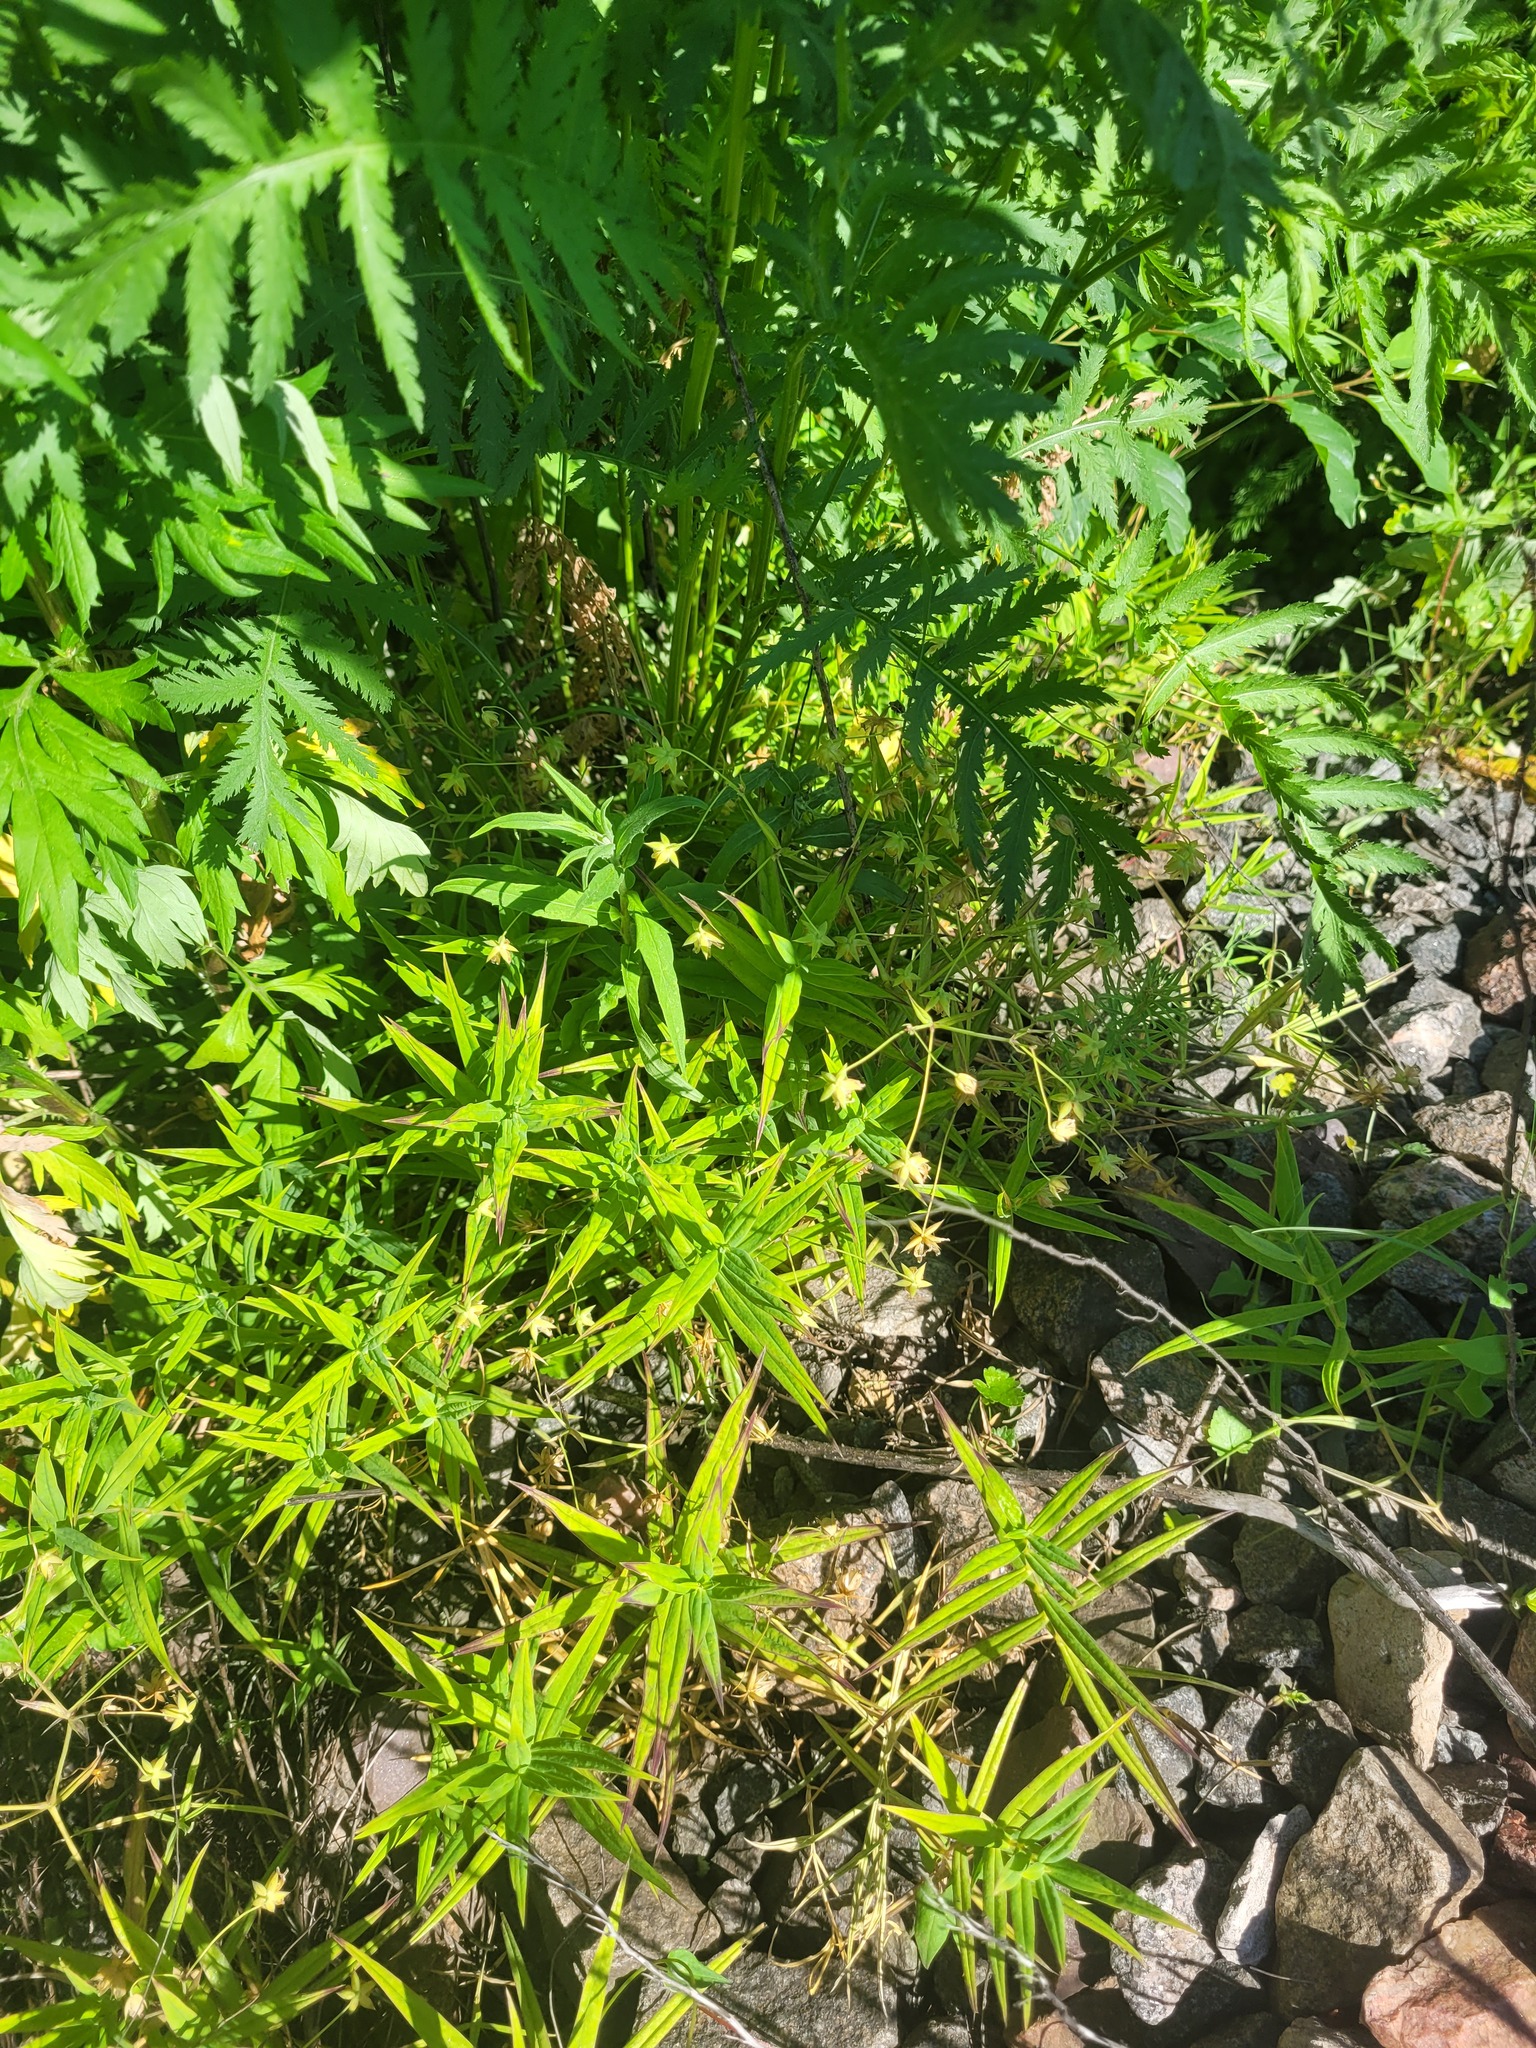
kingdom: Plantae
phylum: Tracheophyta
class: Magnoliopsida
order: Caryophyllales
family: Caryophyllaceae
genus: Rabelera
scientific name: Rabelera holostea
